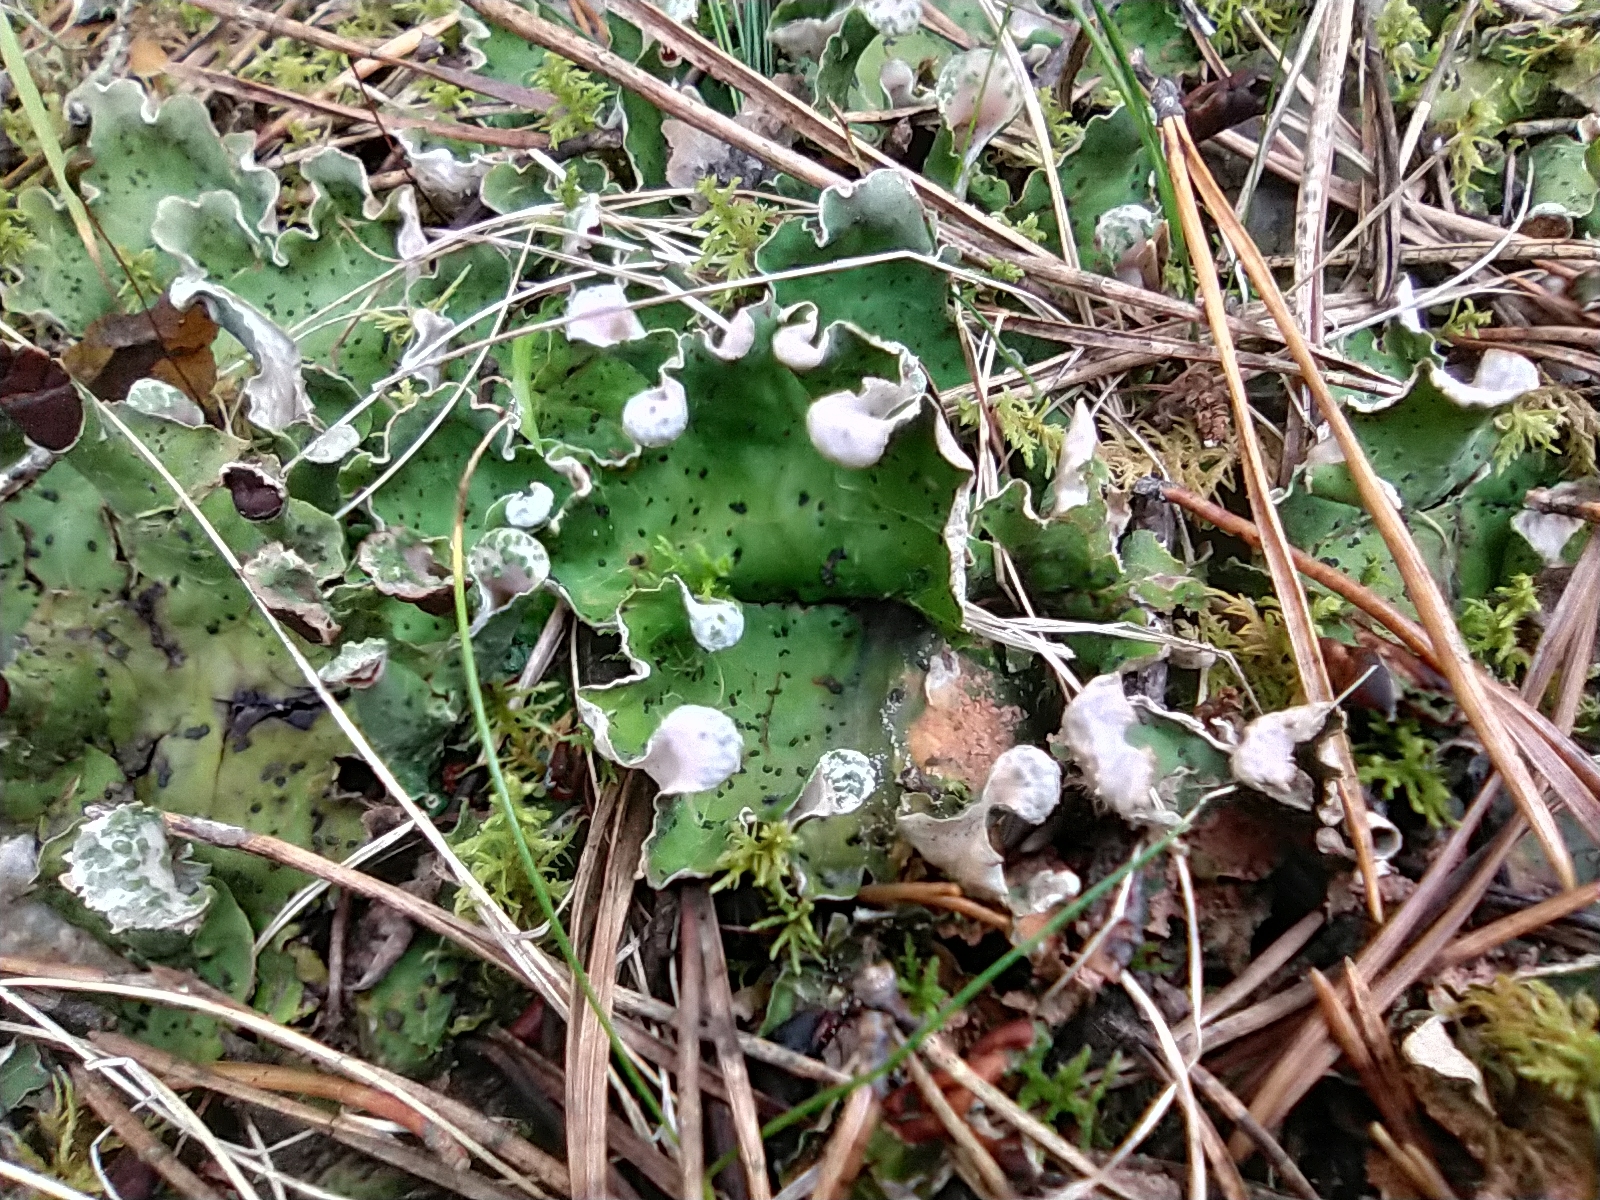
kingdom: Fungi
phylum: Ascomycota
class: Lecanoromycetes
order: Peltigerales
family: Peltigeraceae
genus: Peltigera
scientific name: Peltigera leucophlebia
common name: Ruffled freckle pelt lichen
